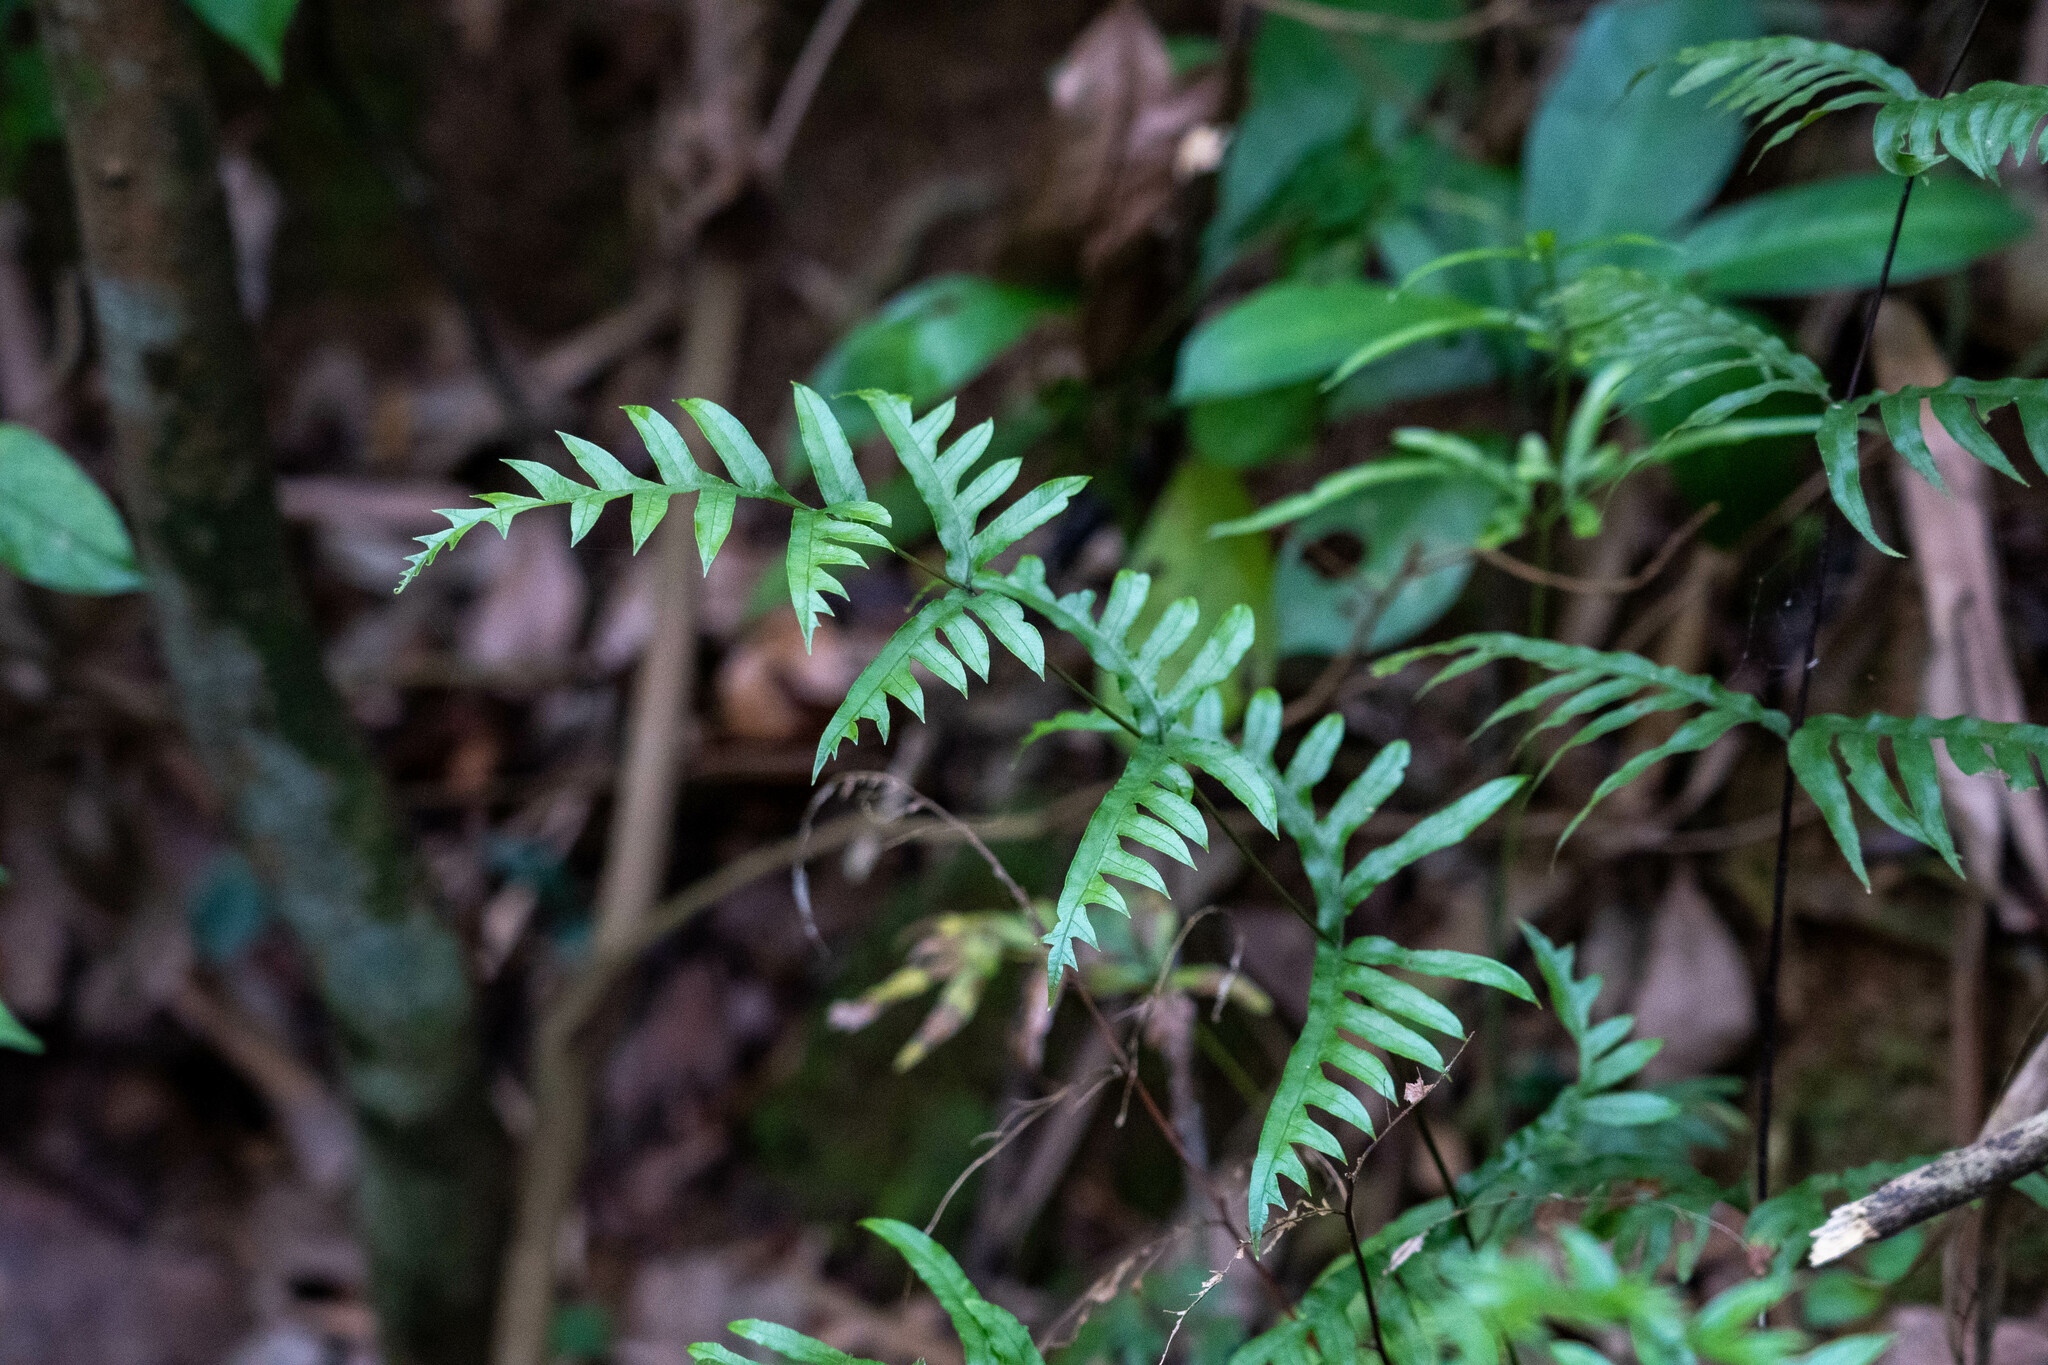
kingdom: Plantae
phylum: Tracheophyta
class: Polypodiopsida
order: Polypodiales
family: Pteridaceae
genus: Pteris
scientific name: Pteris semipinnata
